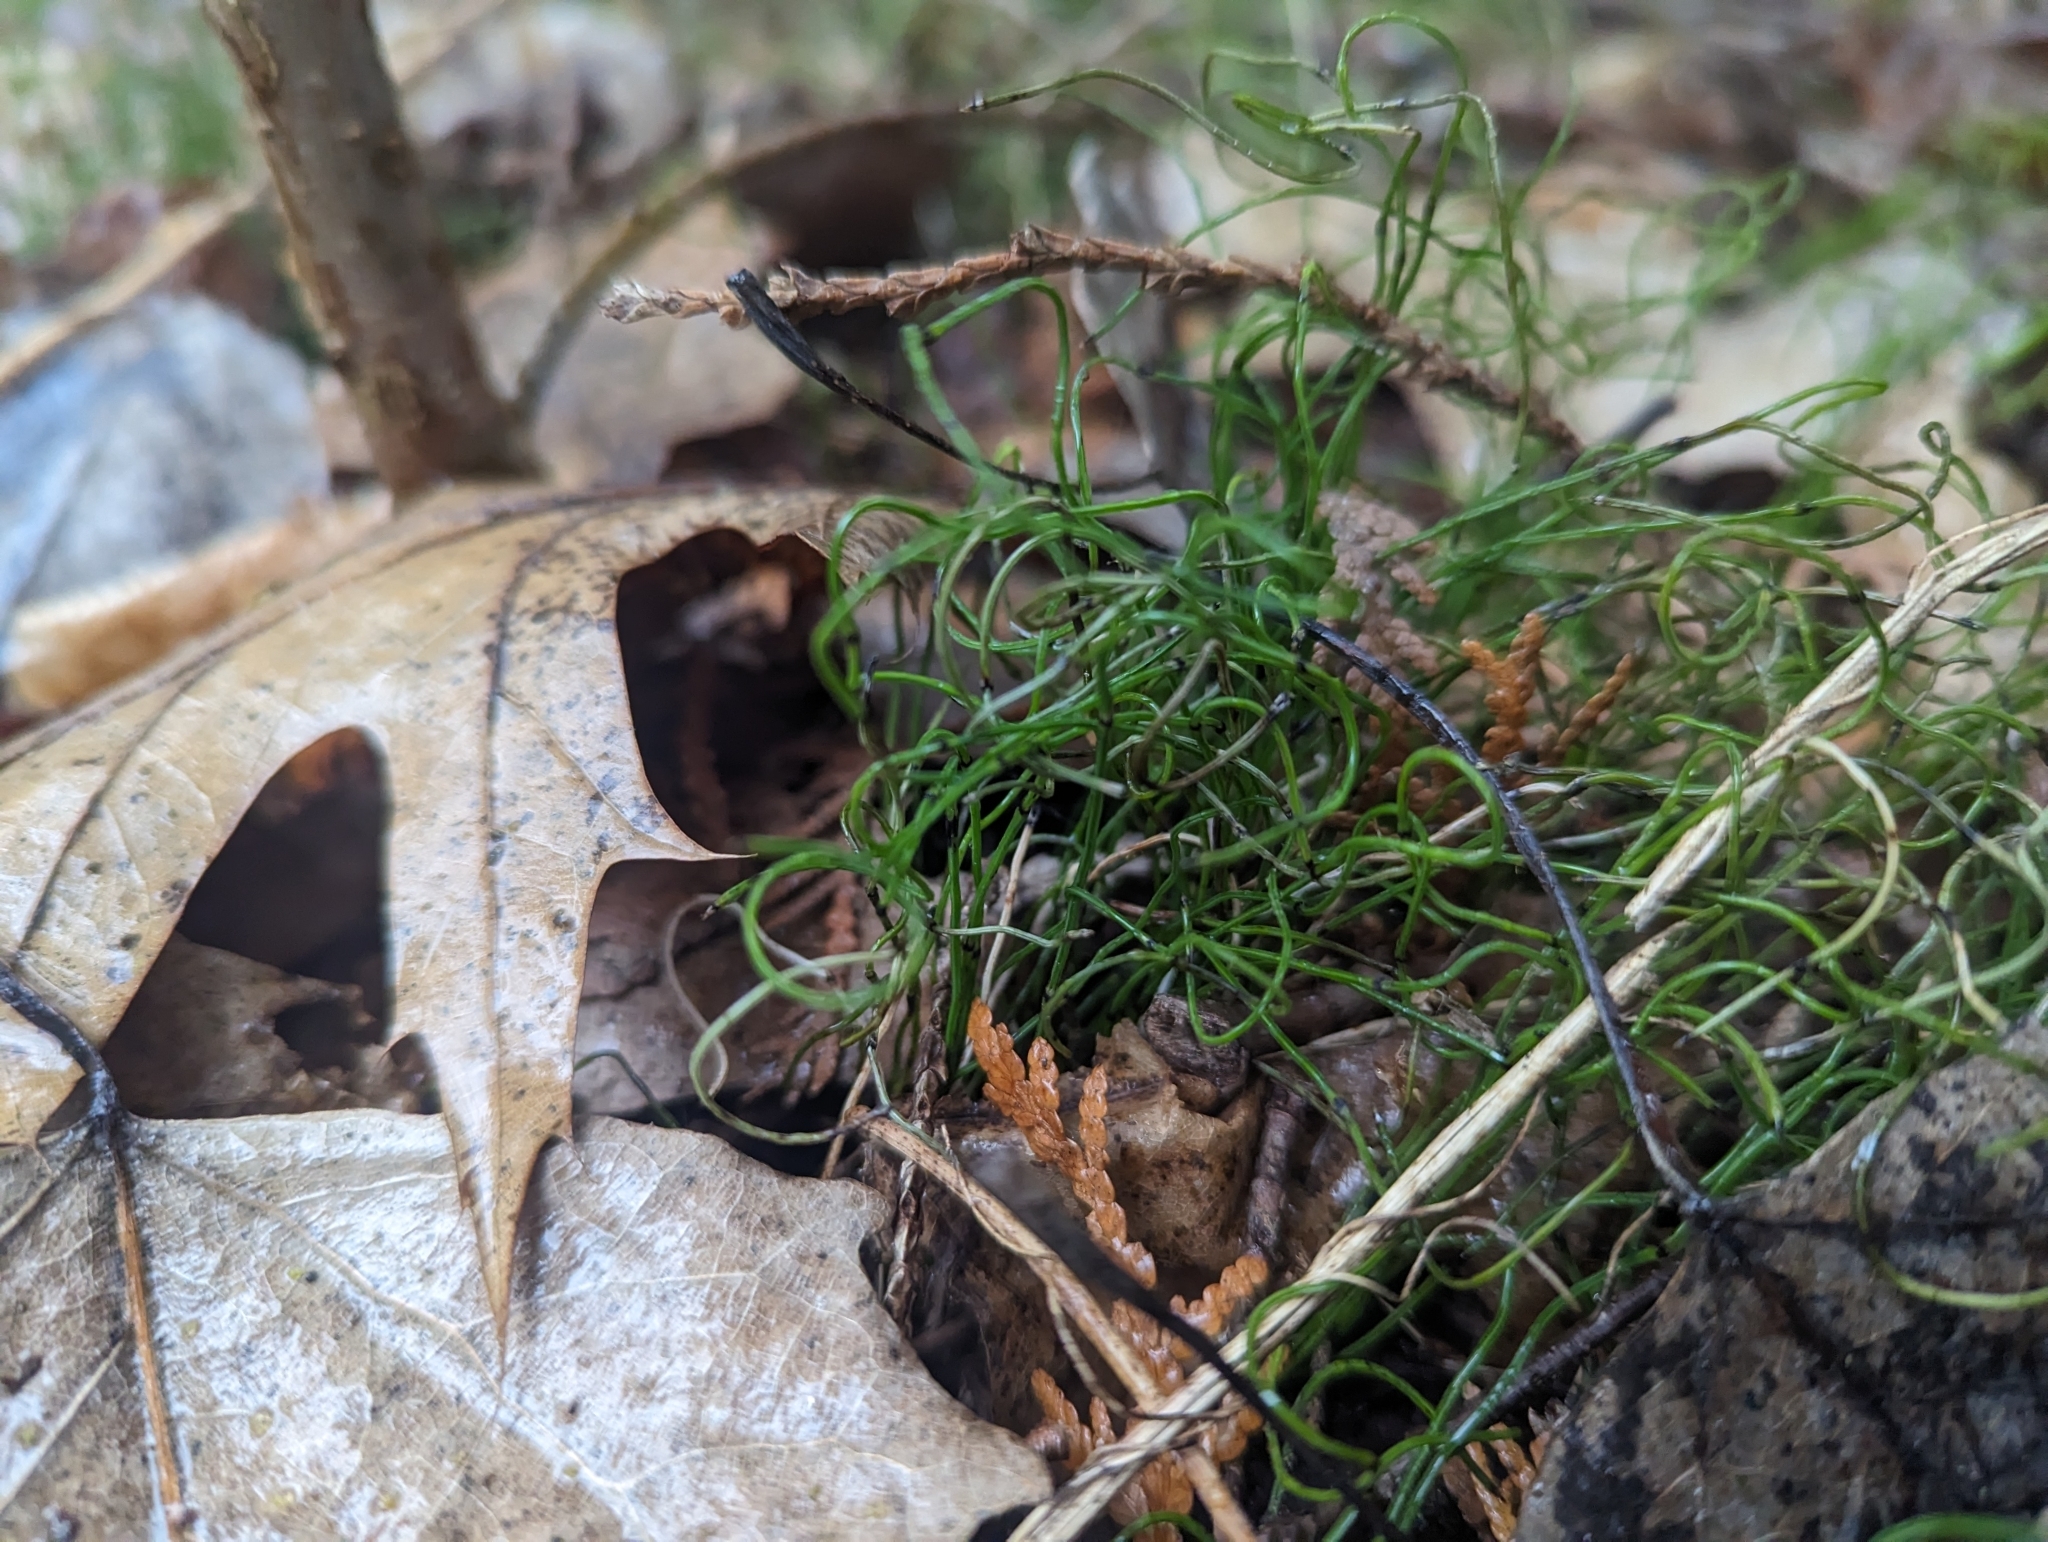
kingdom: Plantae
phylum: Tracheophyta
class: Polypodiopsida
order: Equisetales
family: Equisetaceae
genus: Equisetum
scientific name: Equisetum scirpoides
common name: Delicate horsetail
